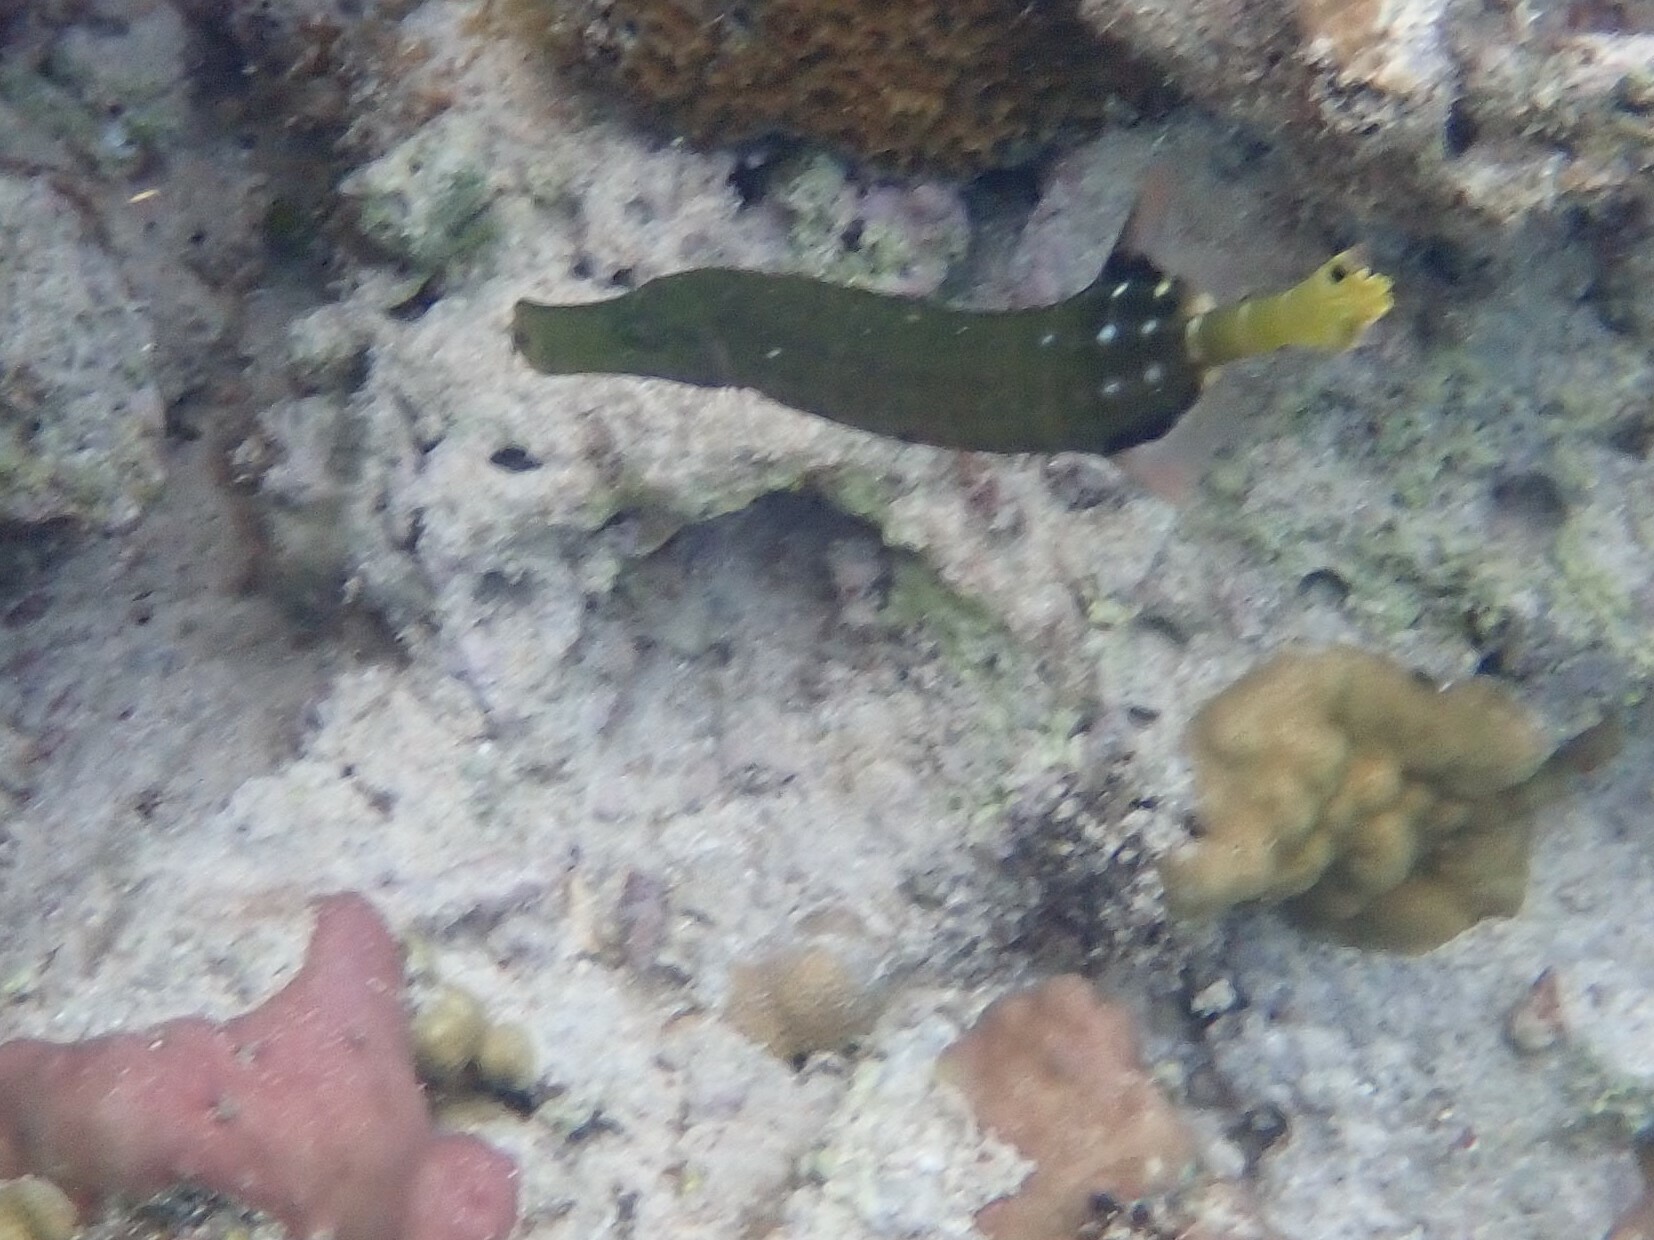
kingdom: Animalia
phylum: Chordata
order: Syngnathiformes
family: Aulostomidae
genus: Aulostomus
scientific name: Aulostomus chinensis
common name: Chinese trumpetfish
